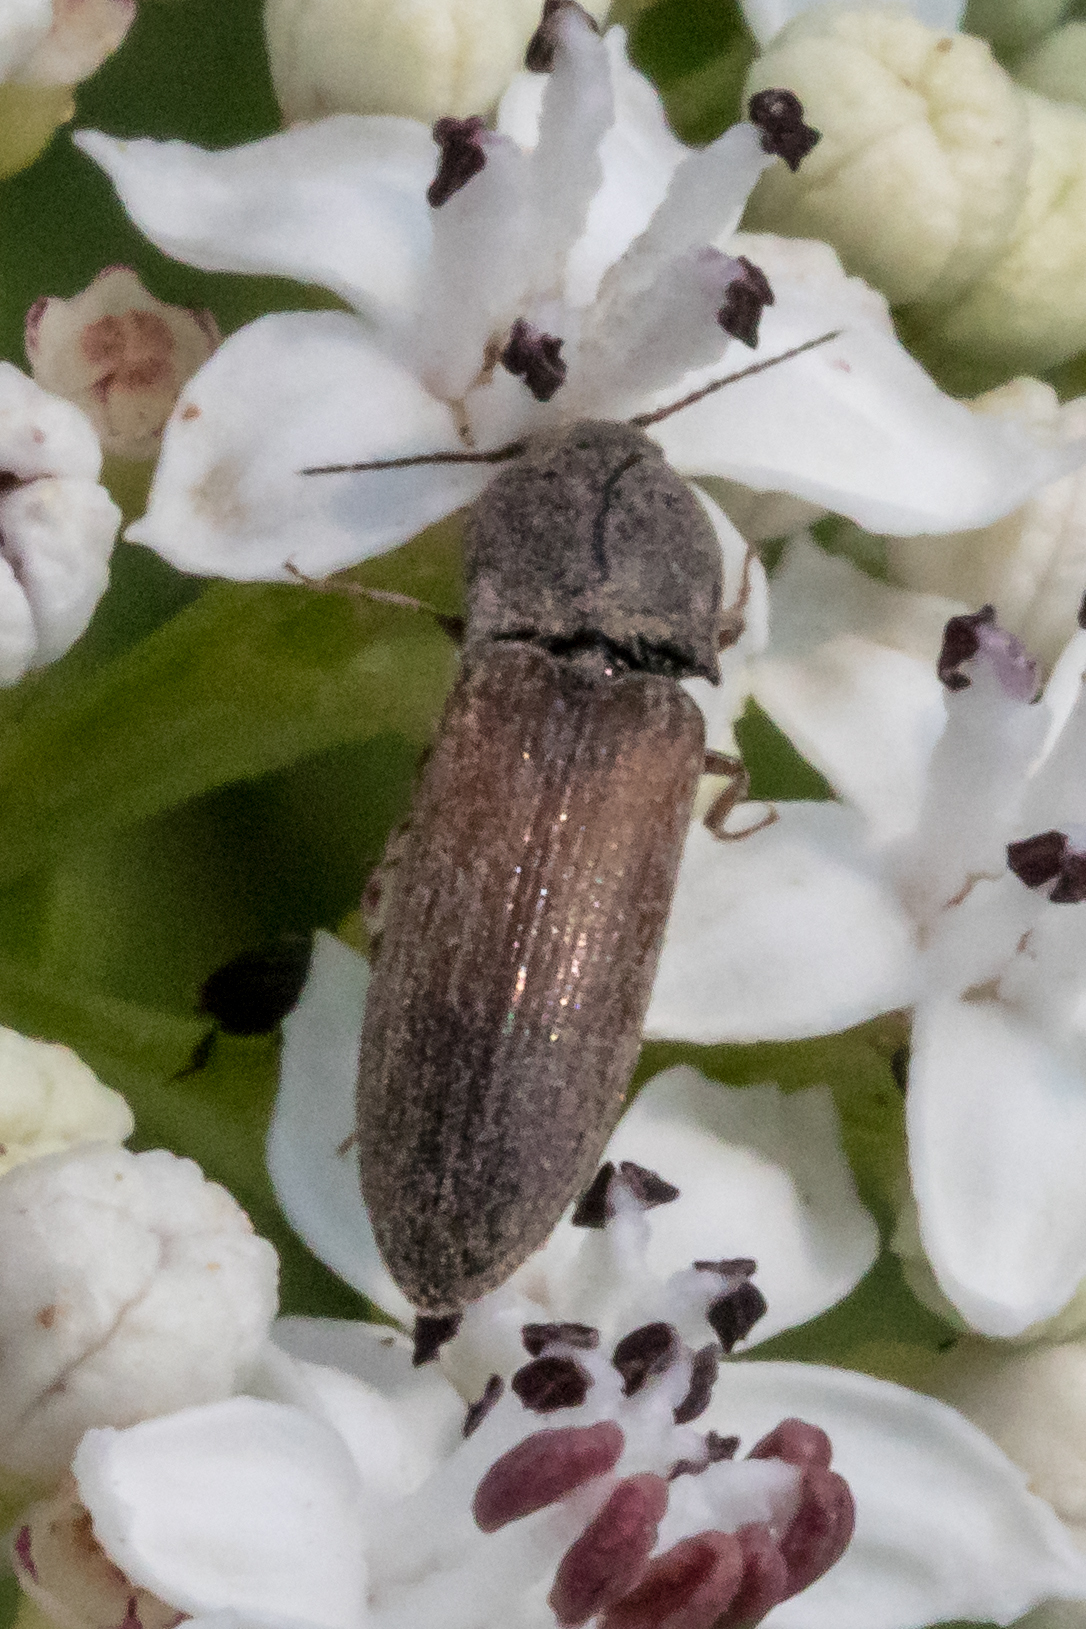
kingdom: Animalia
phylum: Arthropoda
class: Insecta
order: Coleoptera
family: Elateridae
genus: Agriotes
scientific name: Agriotes ustulatus
